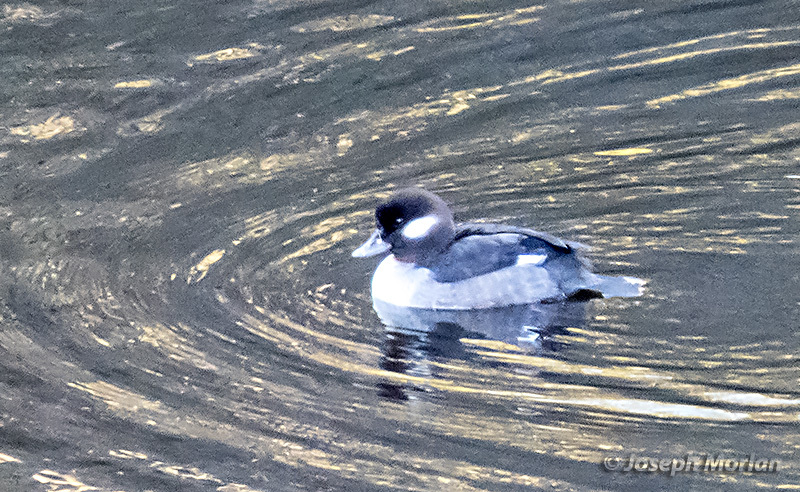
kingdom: Animalia
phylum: Chordata
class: Aves
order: Anseriformes
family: Anatidae
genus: Bucephala
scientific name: Bucephala albeola
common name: Bufflehead
